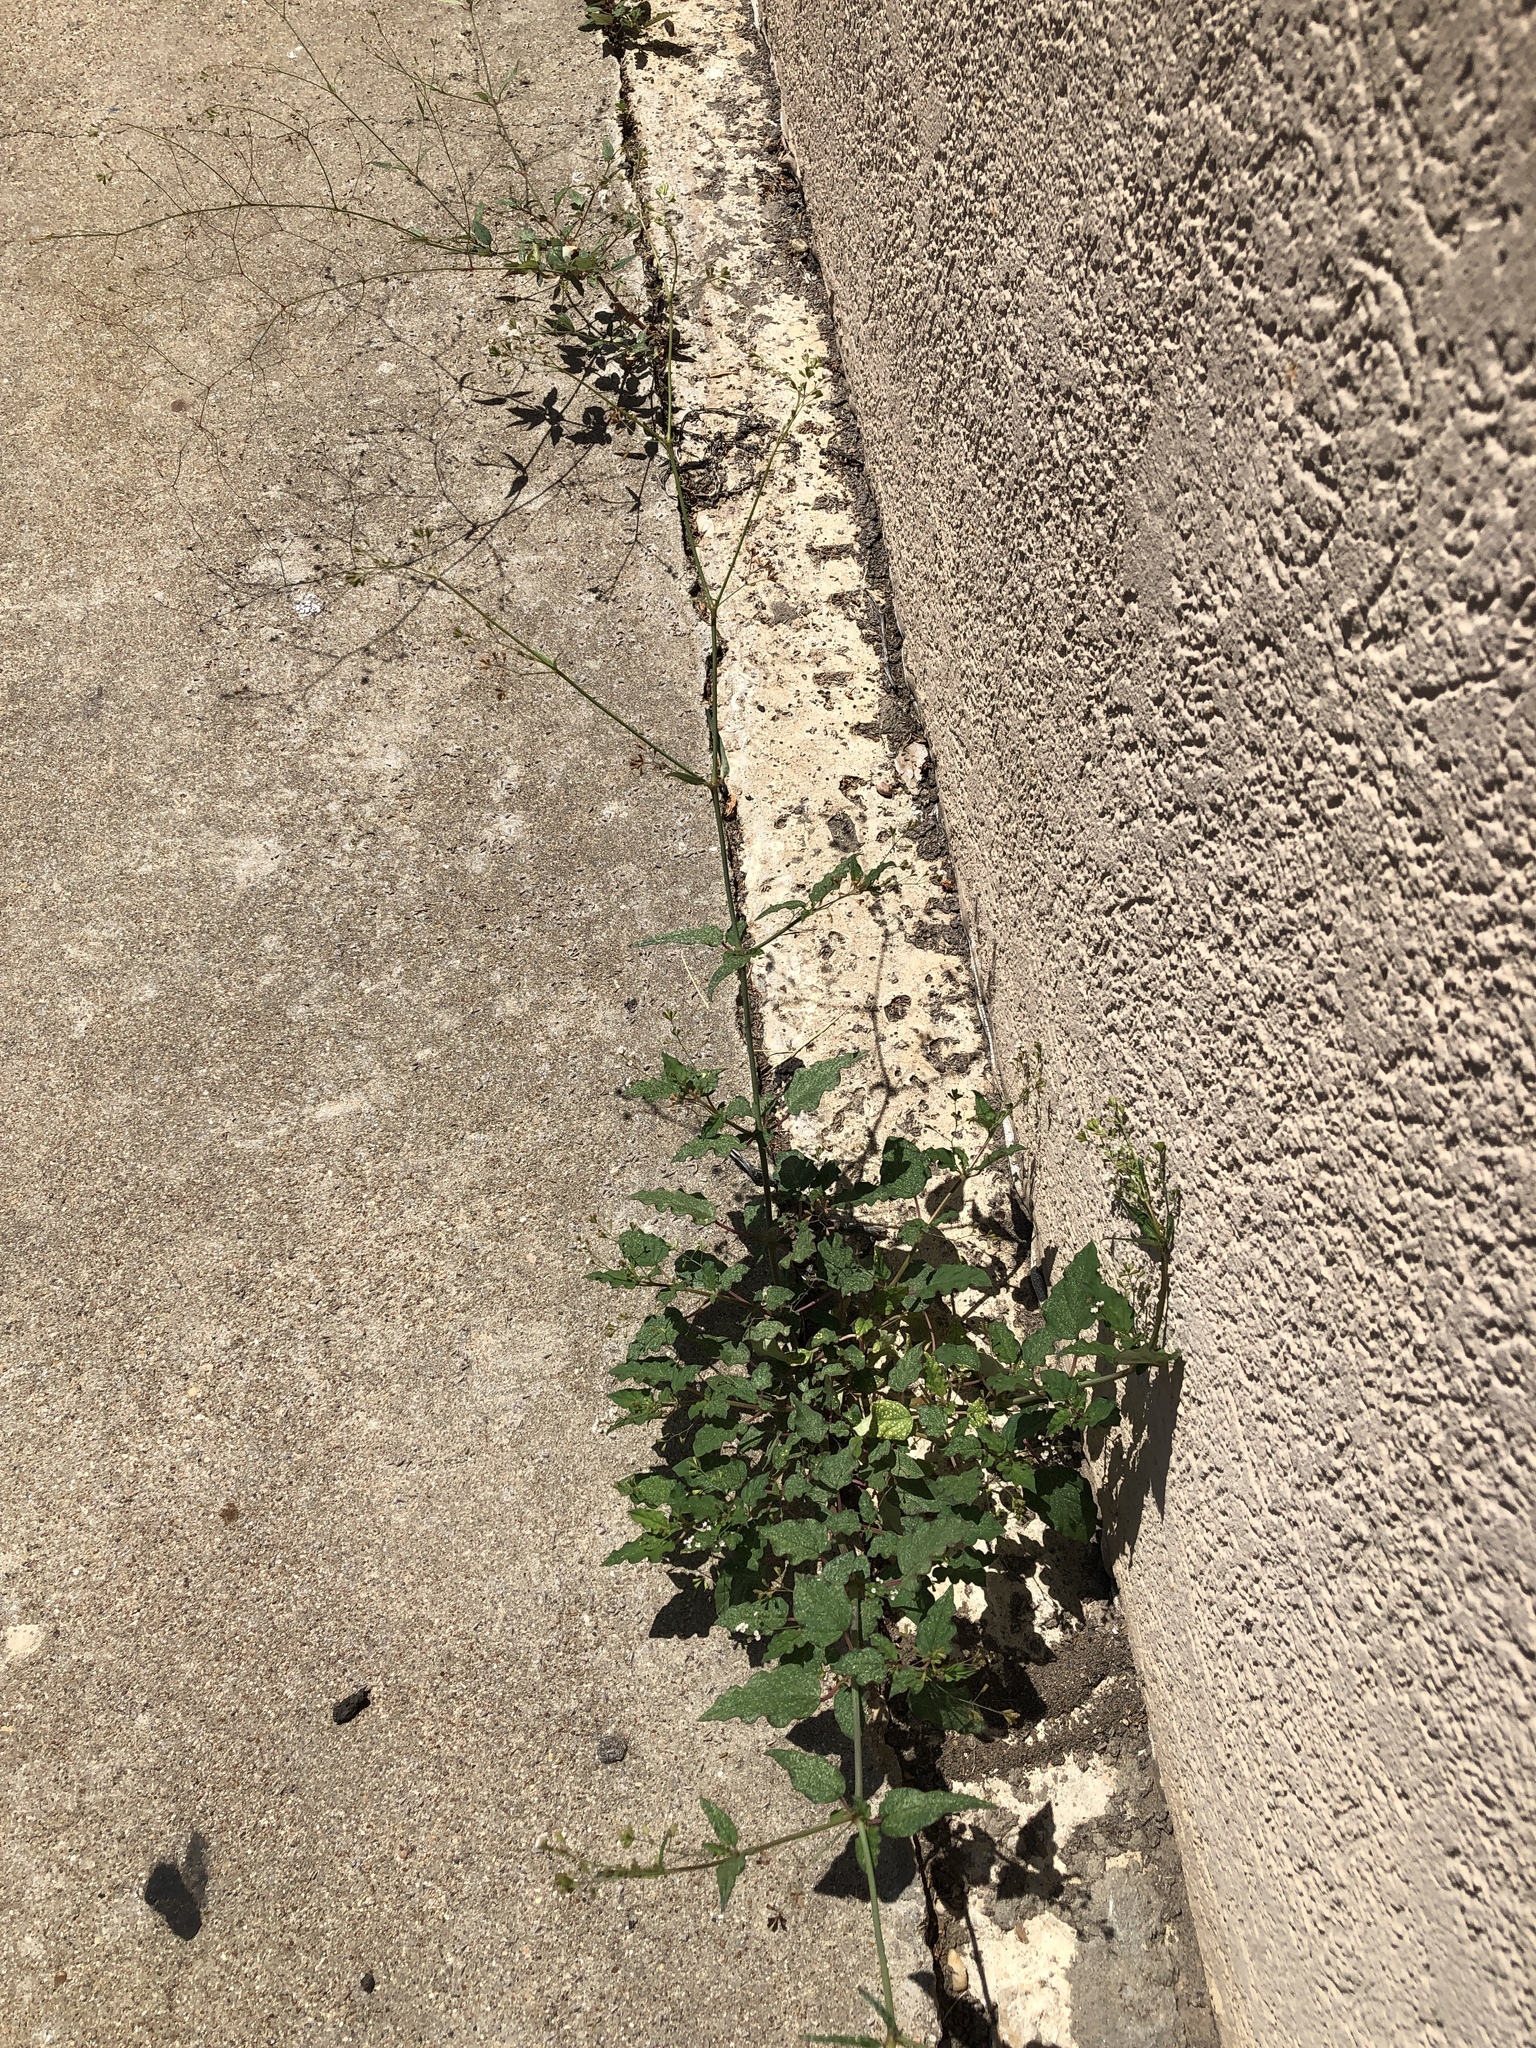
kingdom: Plantae
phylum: Tracheophyta
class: Magnoliopsida
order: Caryophyllales
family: Nyctaginaceae
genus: Boerhavia
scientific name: Boerhavia erecta
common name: Erect spiderling
